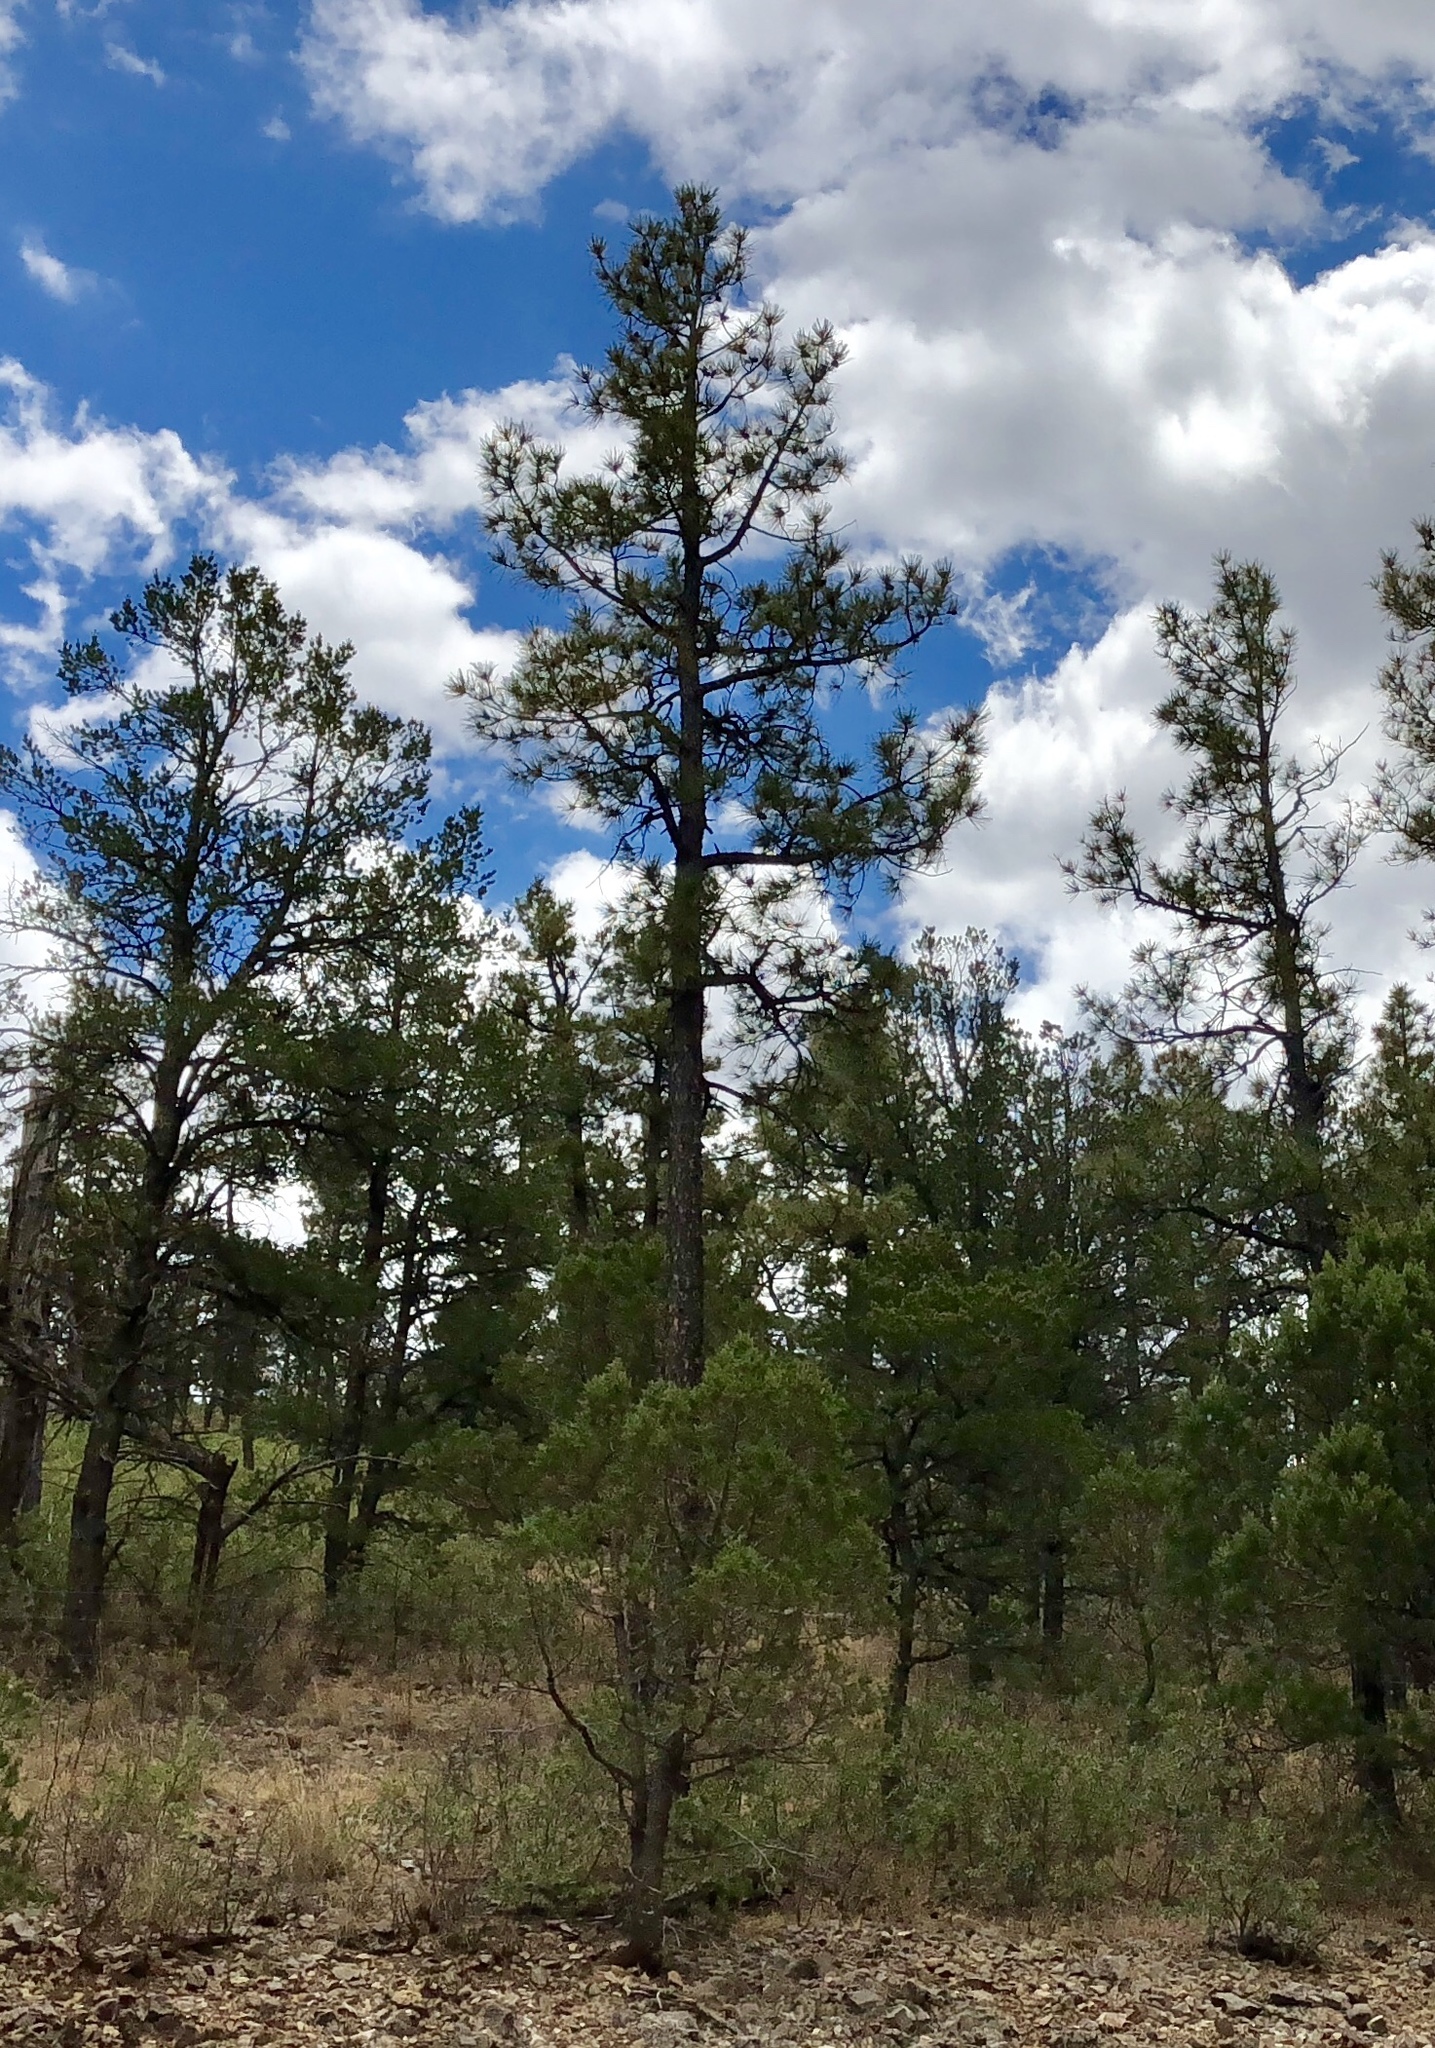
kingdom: Plantae
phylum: Tracheophyta
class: Pinopsida
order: Pinales
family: Pinaceae
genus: Pinus
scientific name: Pinus ponderosa
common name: Western yellow-pine
